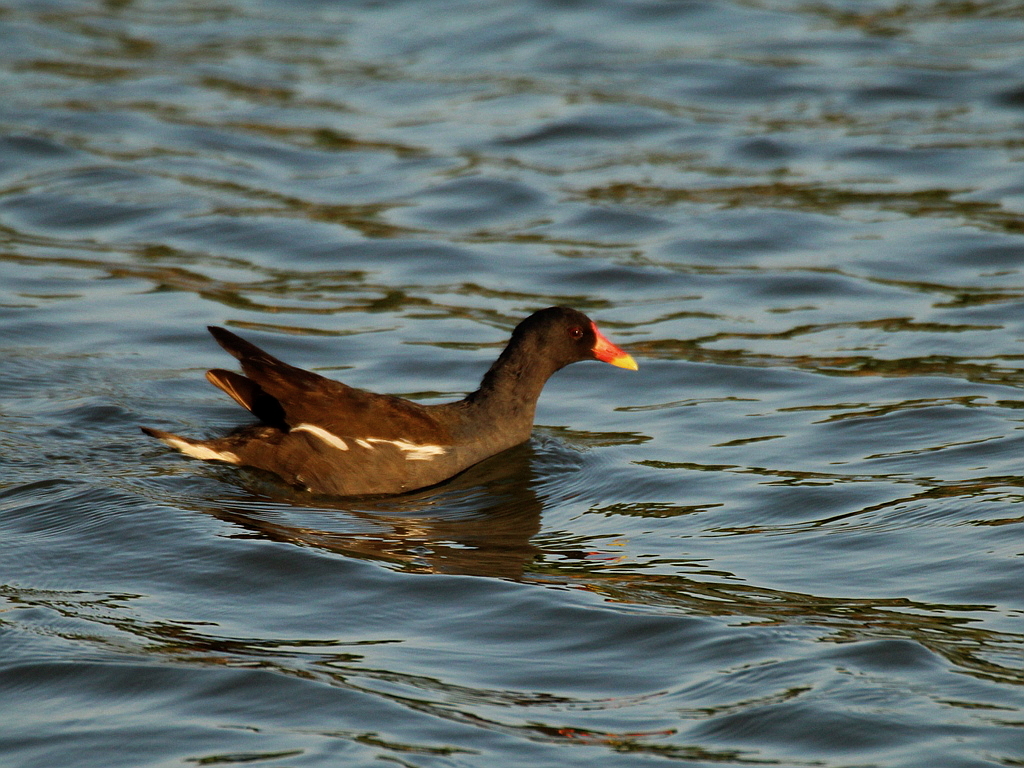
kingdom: Animalia
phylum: Chordata
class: Aves
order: Gruiformes
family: Rallidae
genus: Gallinula
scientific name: Gallinula chloropus
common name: Common moorhen
